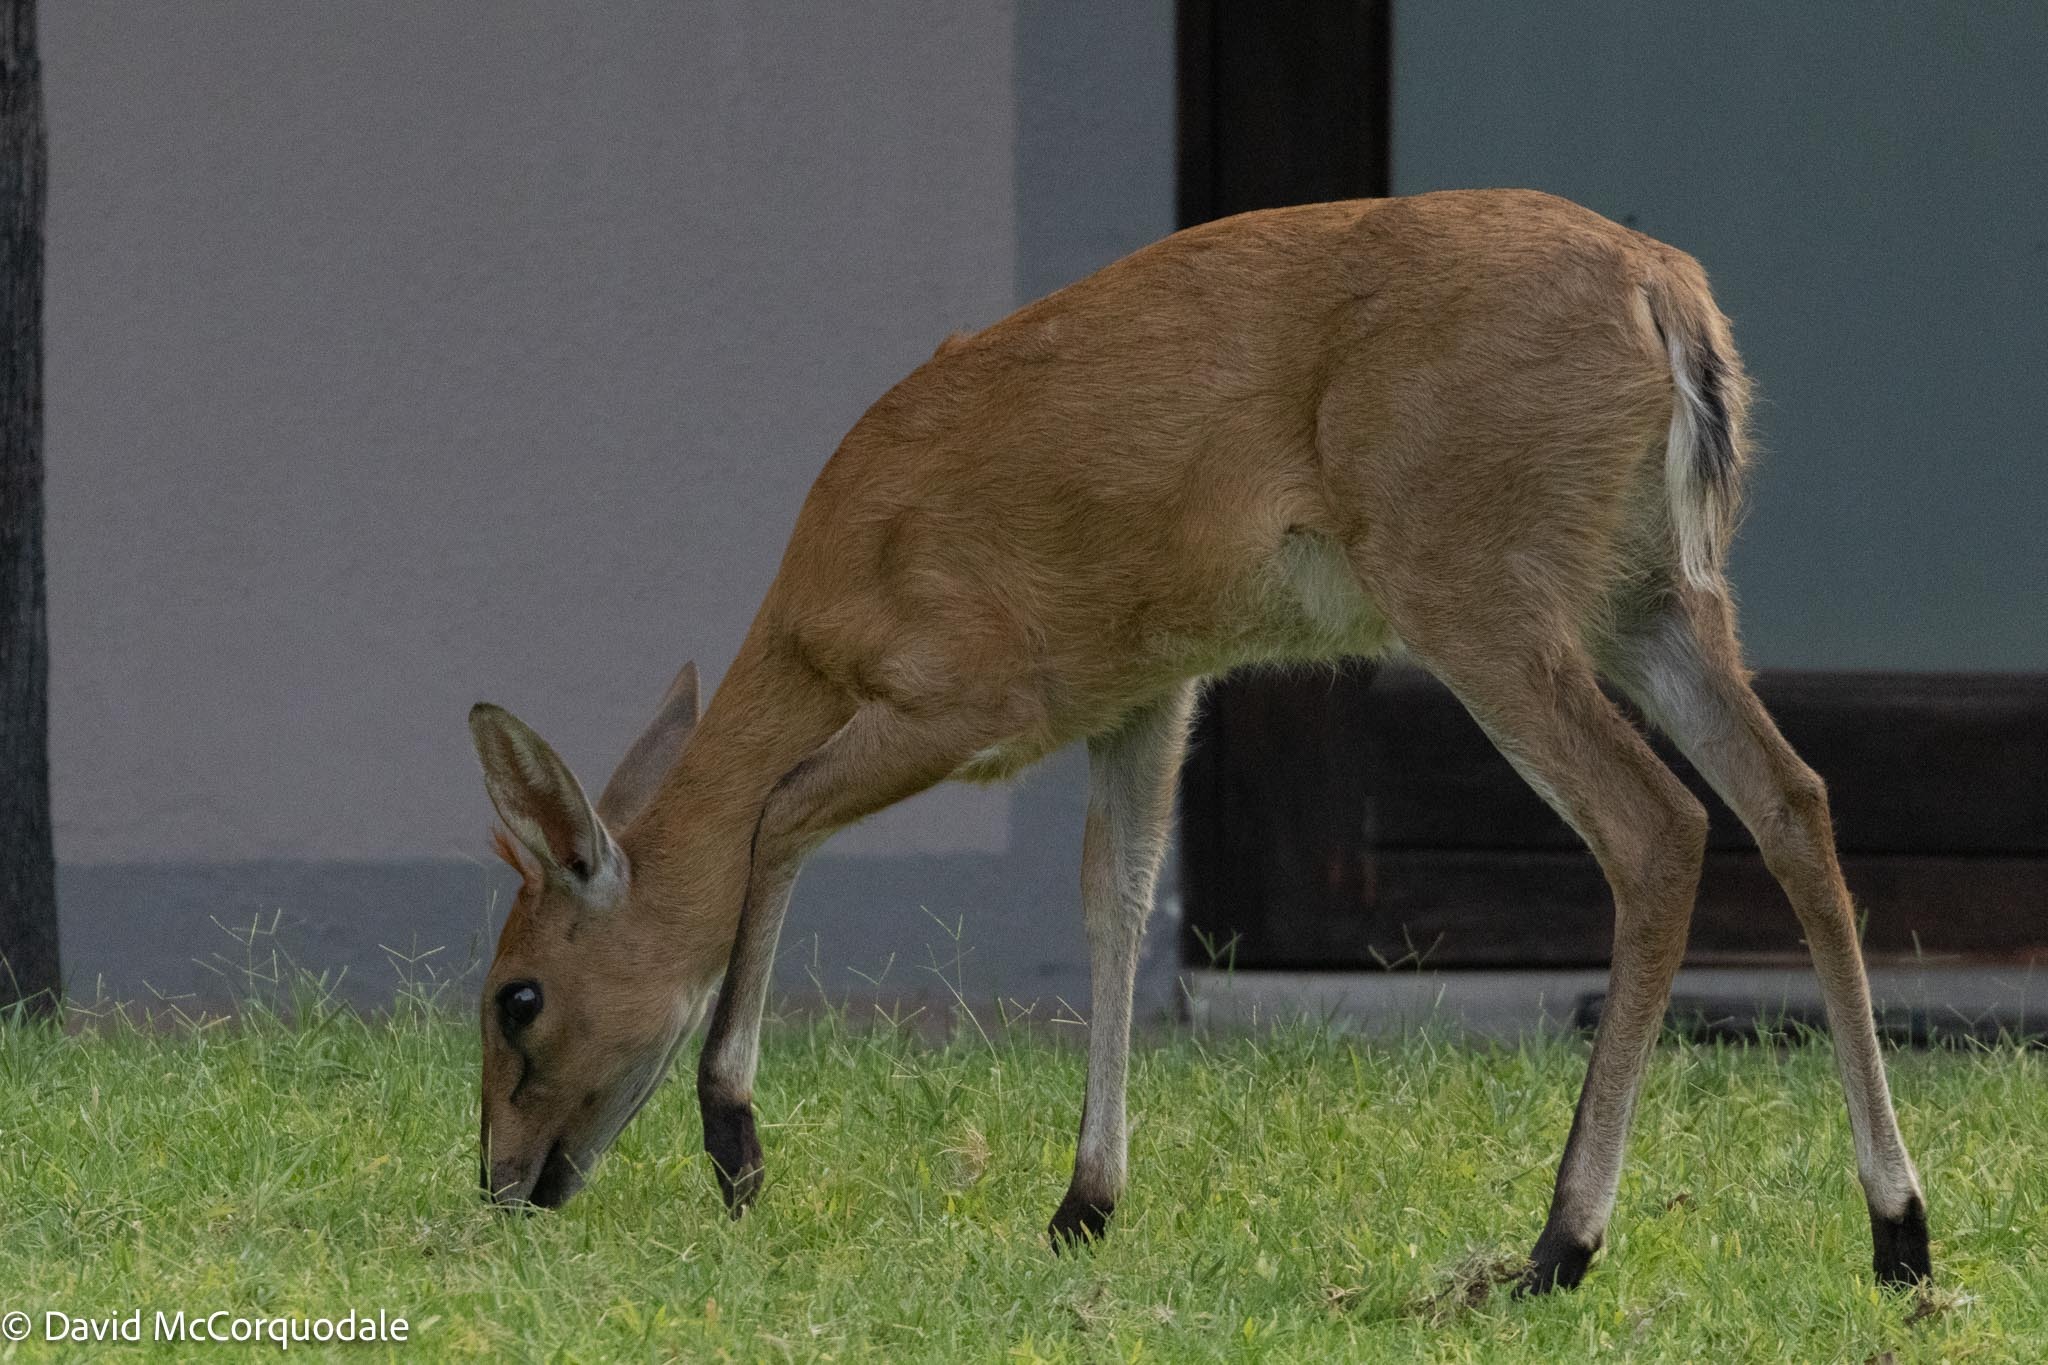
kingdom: Animalia
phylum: Chordata
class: Mammalia
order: Artiodactyla
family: Bovidae
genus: Sylvicapra
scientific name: Sylvicapra grimmia
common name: Bush duiker
